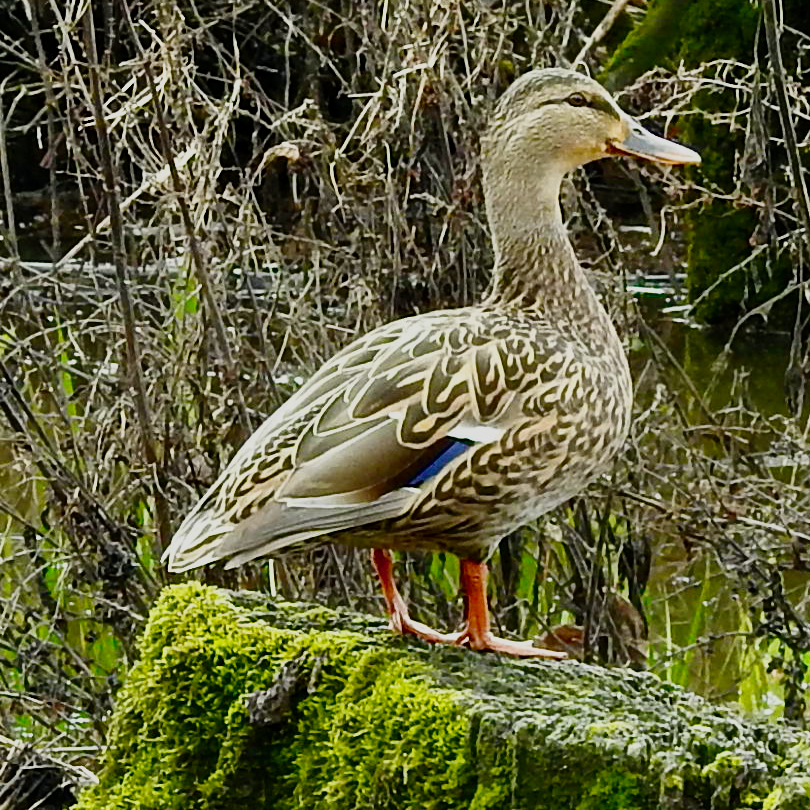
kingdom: Animalia
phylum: Chordata
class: Aves
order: Anseriformes
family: Anatidae
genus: Anas
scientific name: Anas platyrhynchos
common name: Mallard
